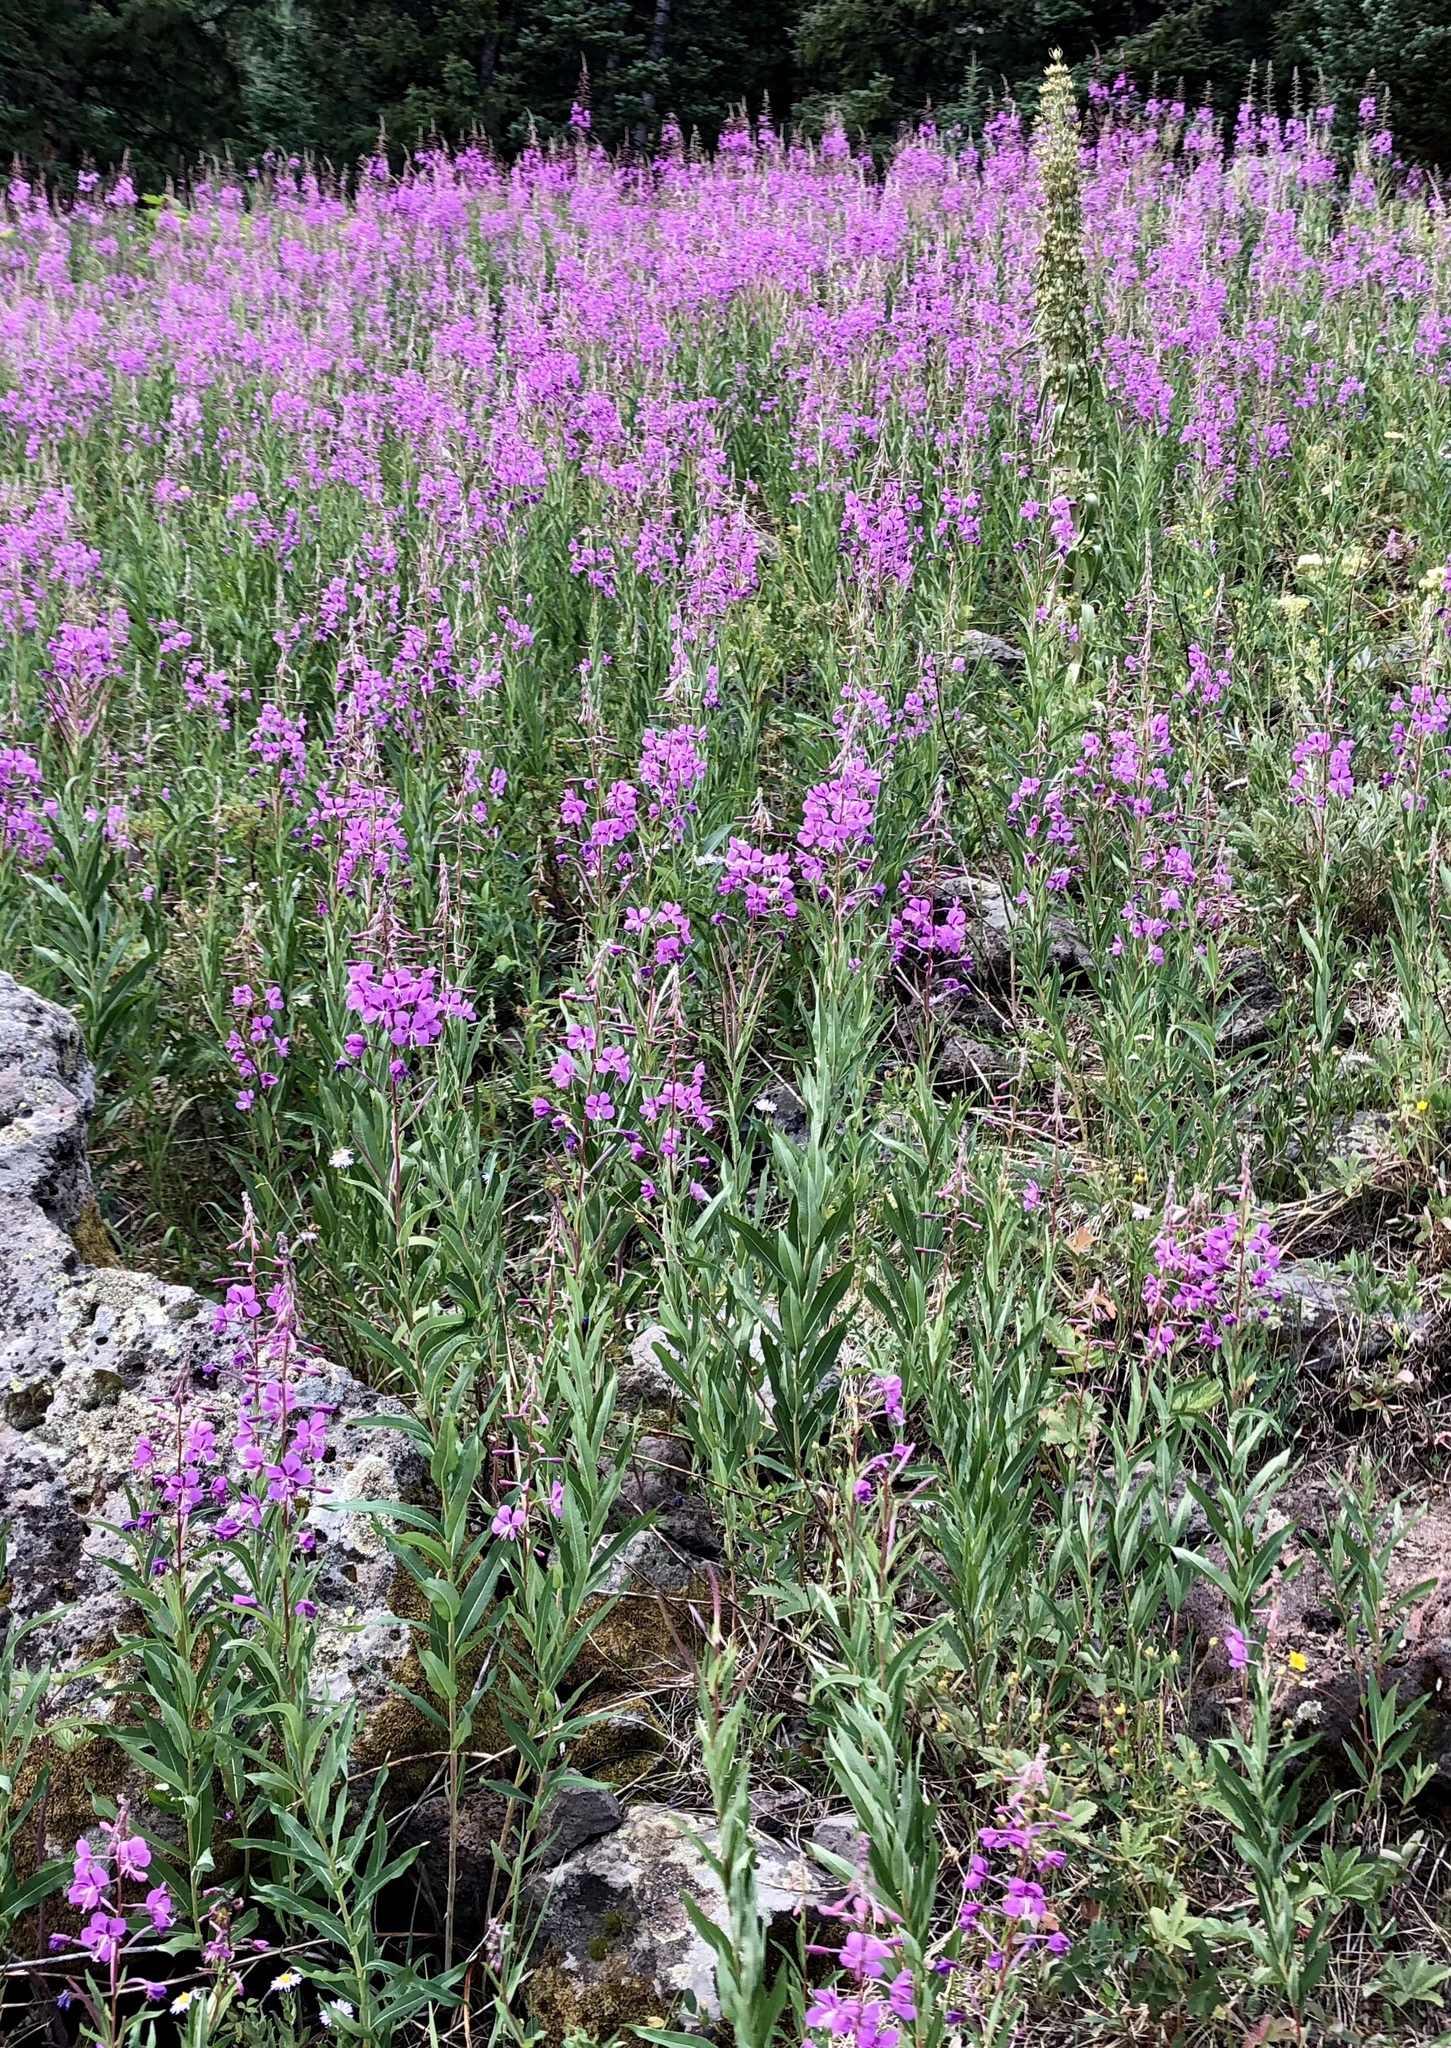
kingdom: Plantae
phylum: Tracheophyta
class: Magnoliopsida
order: Myrtales
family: Onagraceae
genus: Chamaenerion
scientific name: Chamaenerion angustifolium
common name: Fireweed
